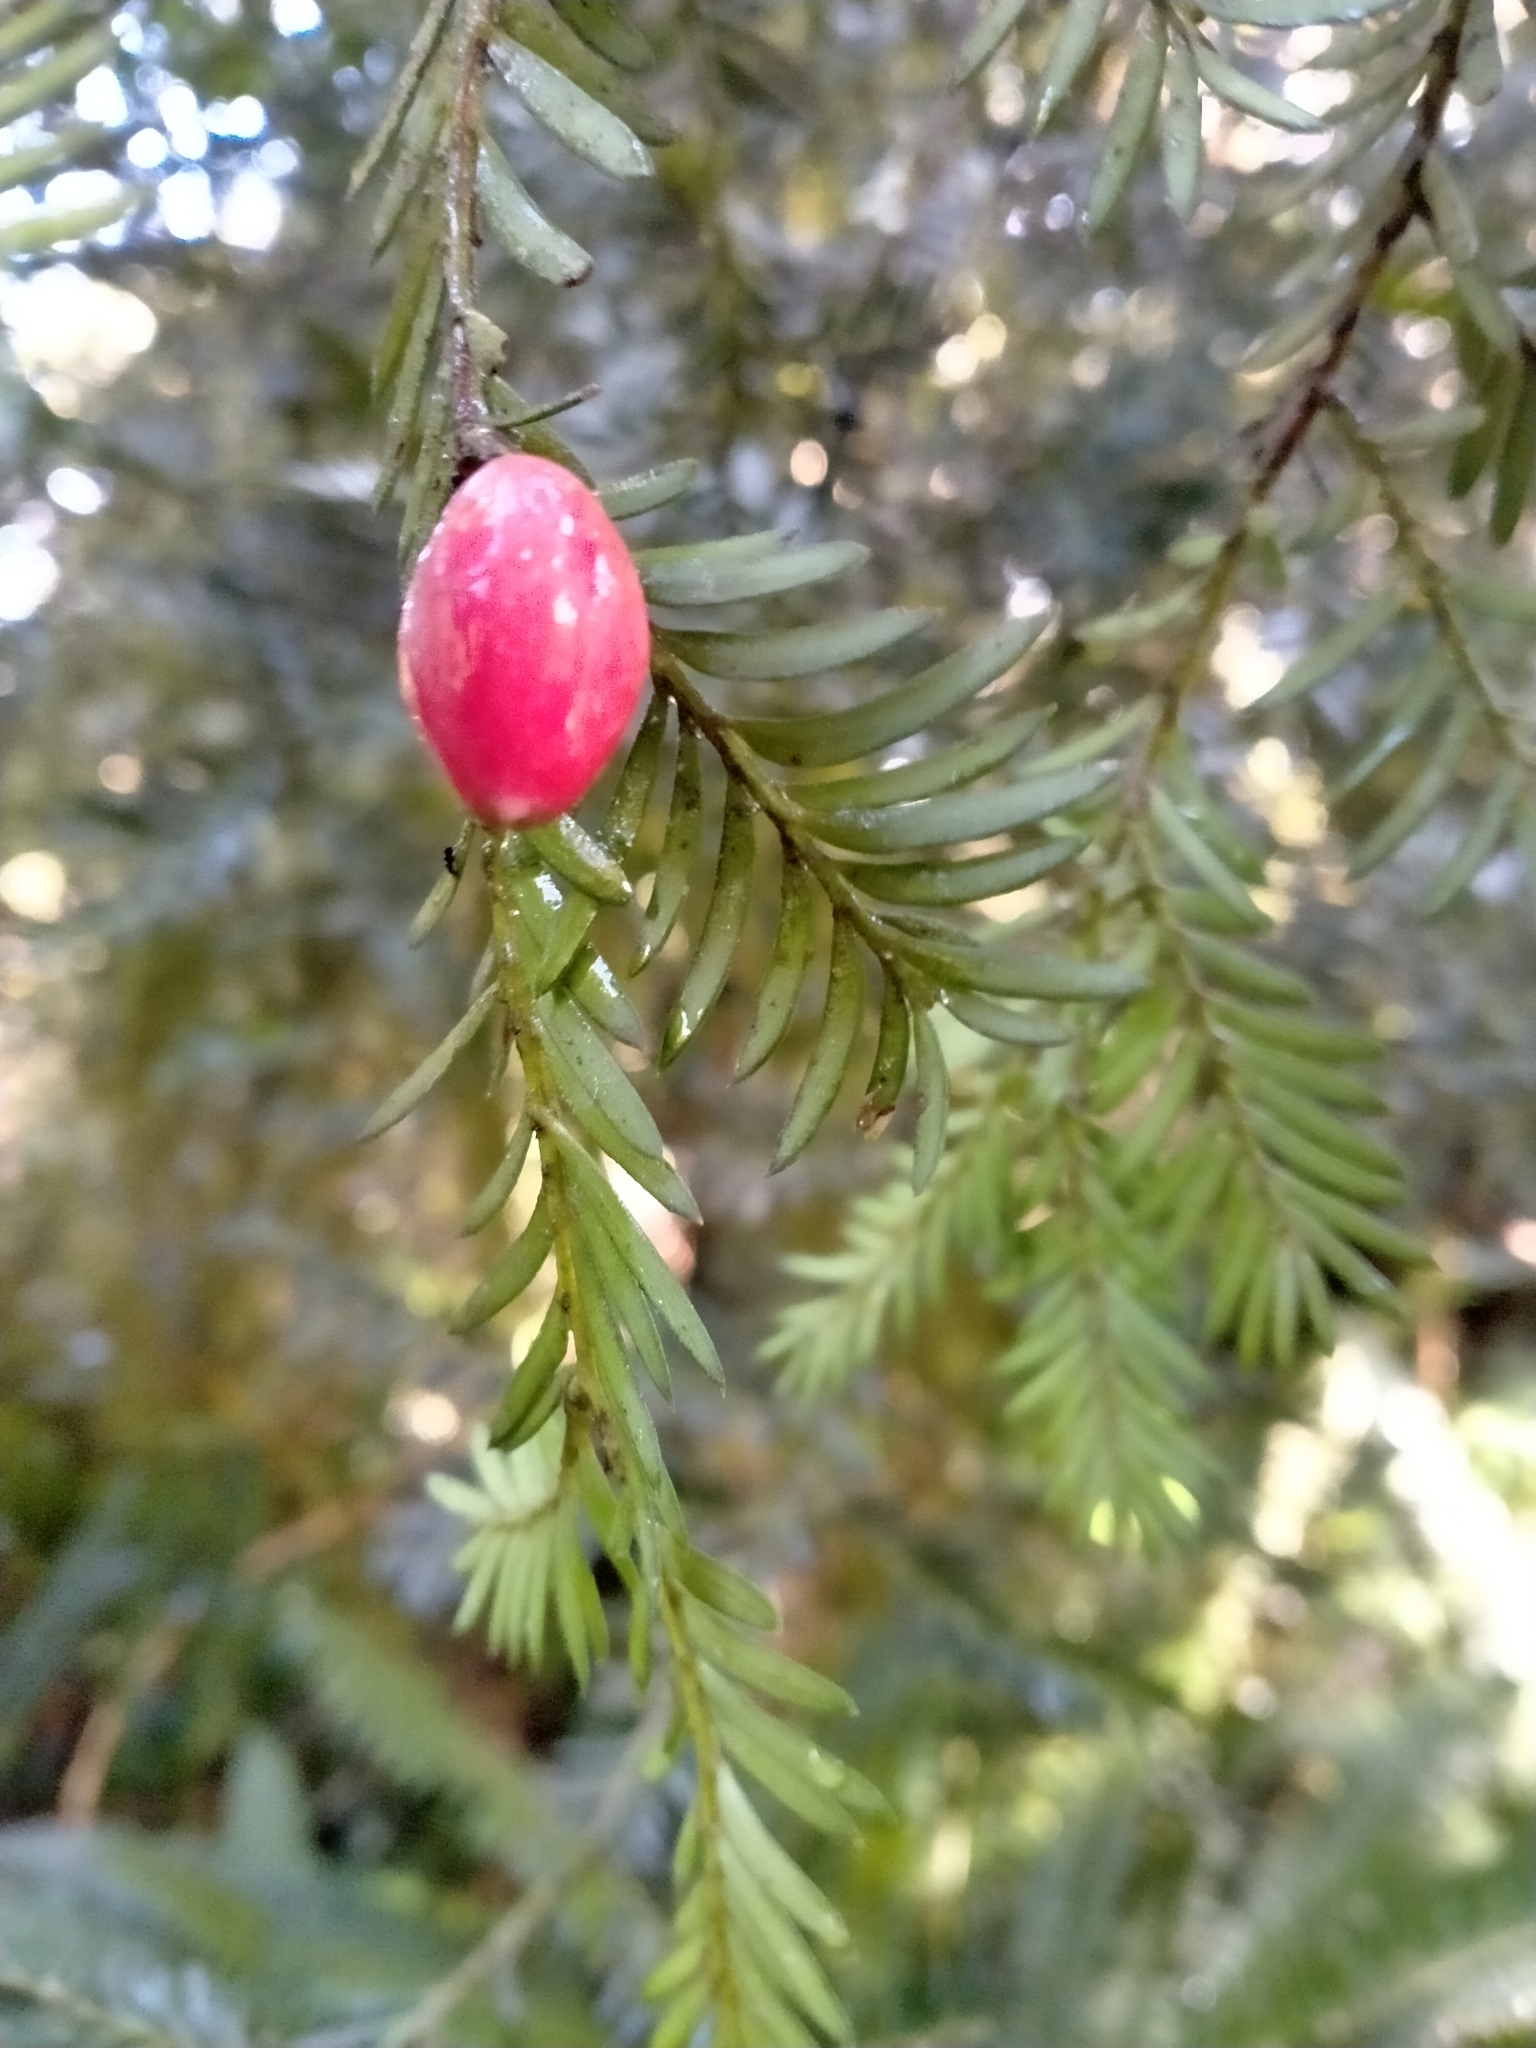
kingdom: Plantae
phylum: Tracheophyta
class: Pinopsida
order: Pinales
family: Podocarpaceae
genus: Prumnopitys
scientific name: Prumnopitys ferruginea
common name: Brown pine
